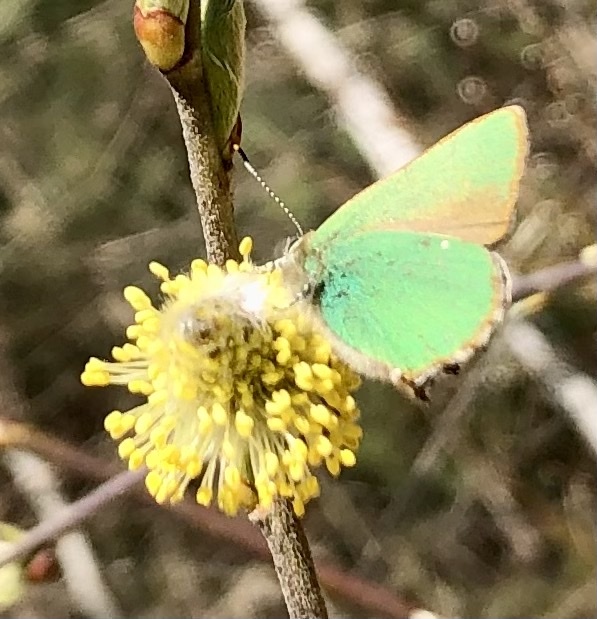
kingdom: Animalia
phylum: Arthropoda
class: Insecta
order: Lepidoptera
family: Lycaenidae
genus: Callophrys
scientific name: Callophrys rubi
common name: Green hairstreak
